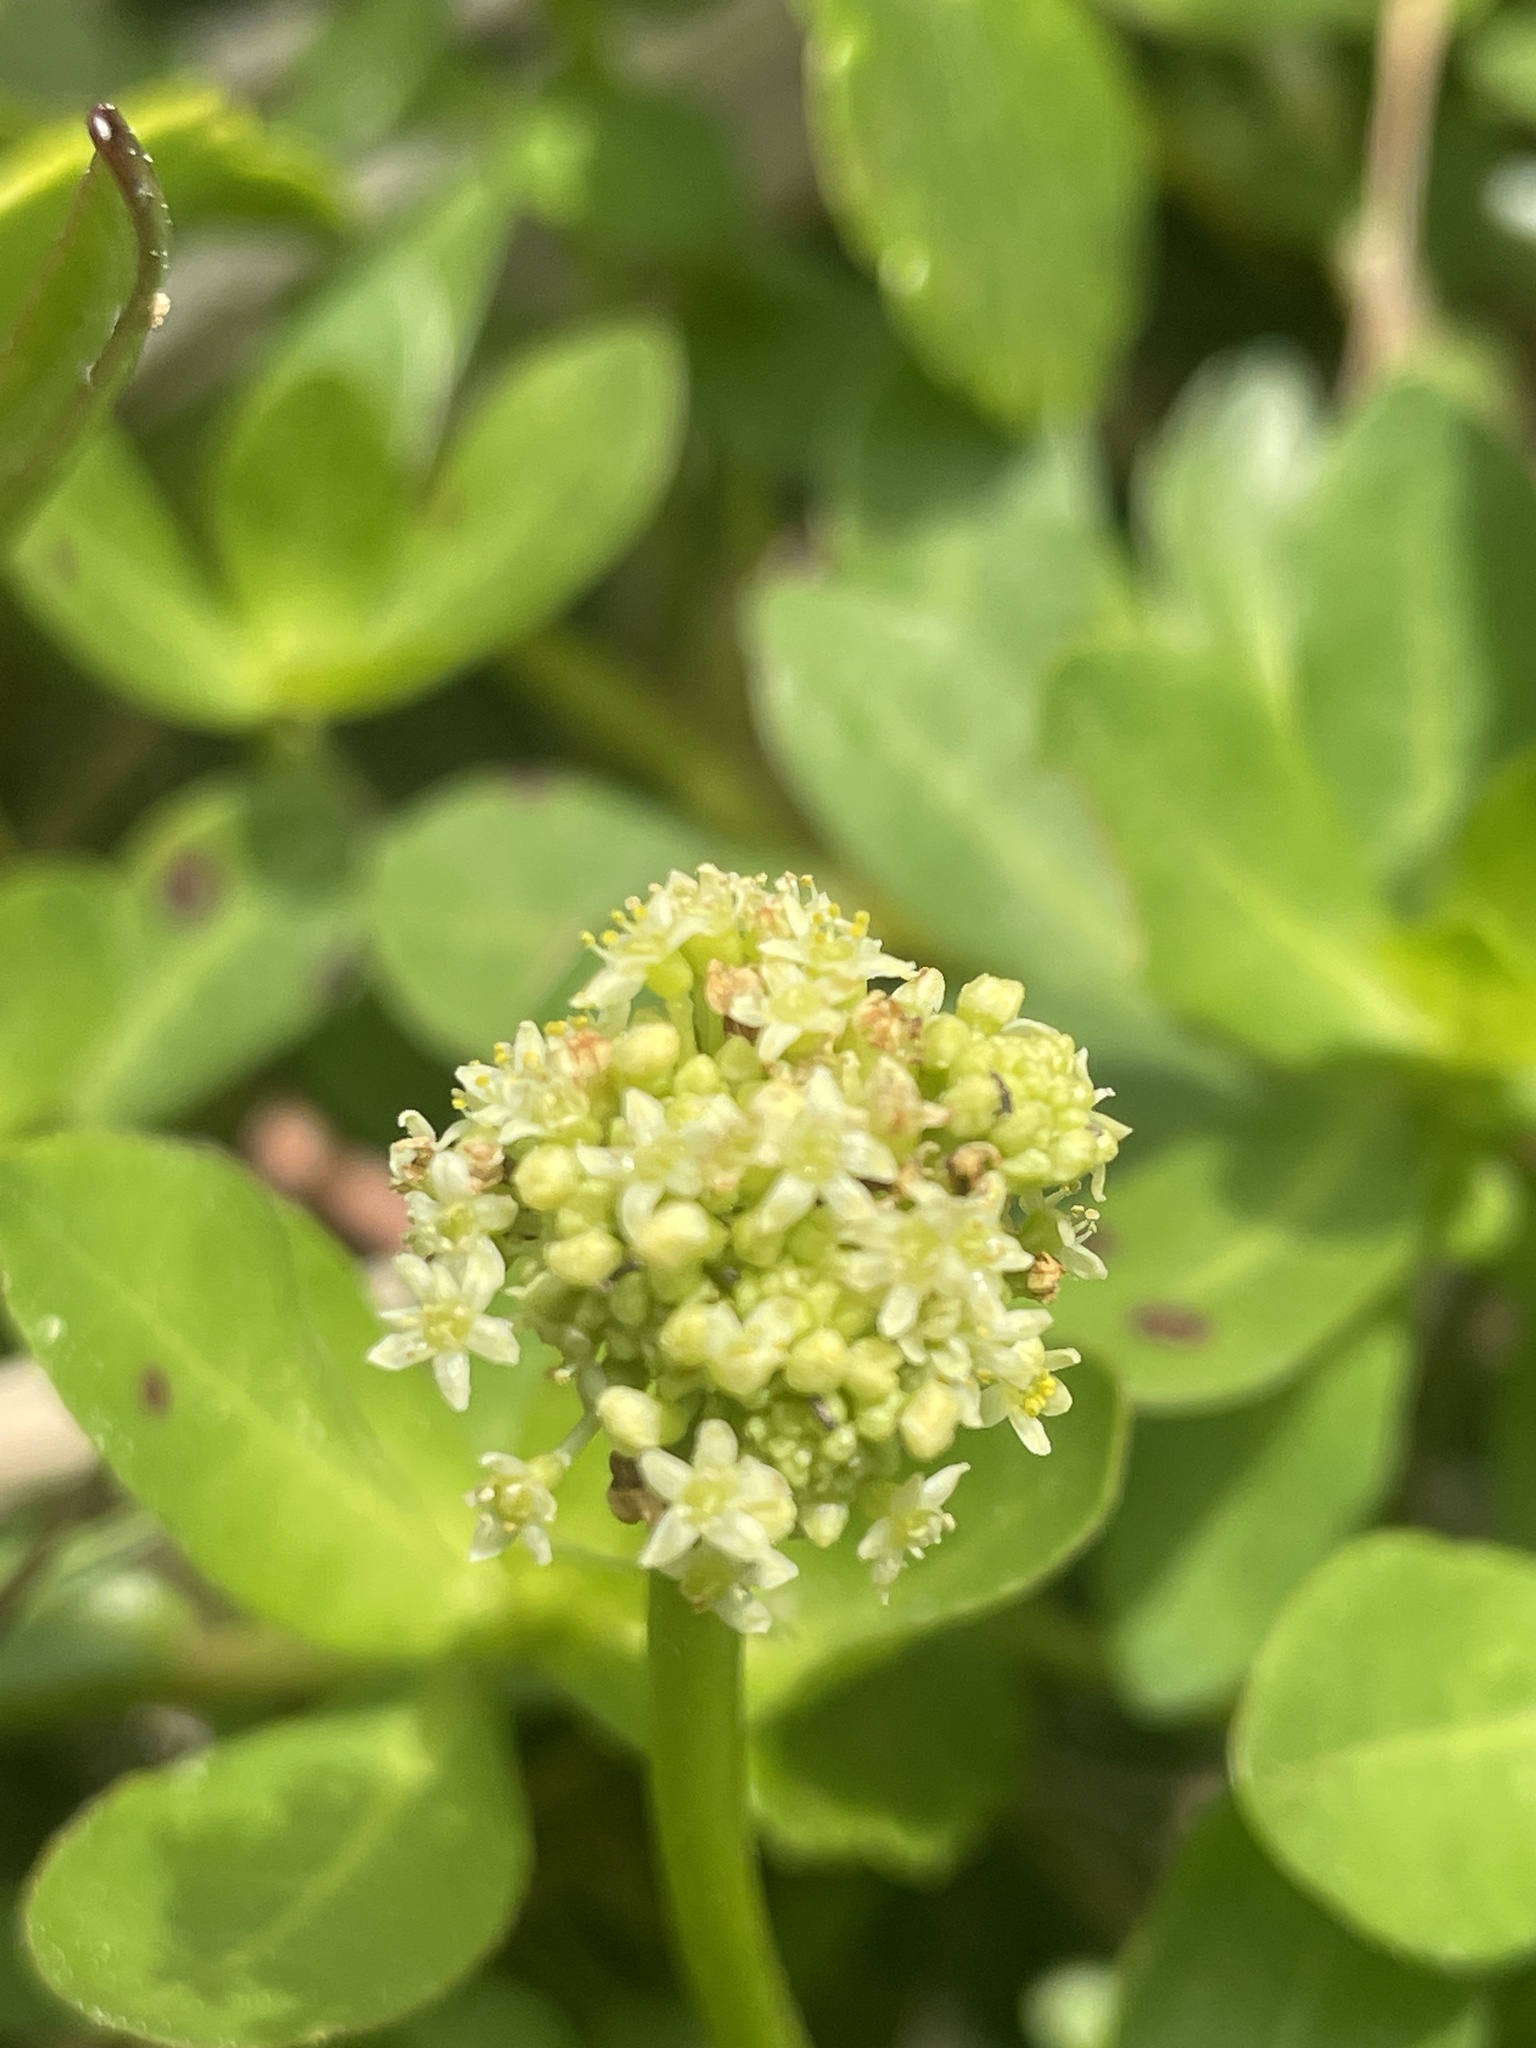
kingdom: Plantae
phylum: Tracheophyta
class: Magnoliopsida
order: Apiales
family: Araliaceae
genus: Hydrocotyle
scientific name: Hydrocotyle bonariensis
